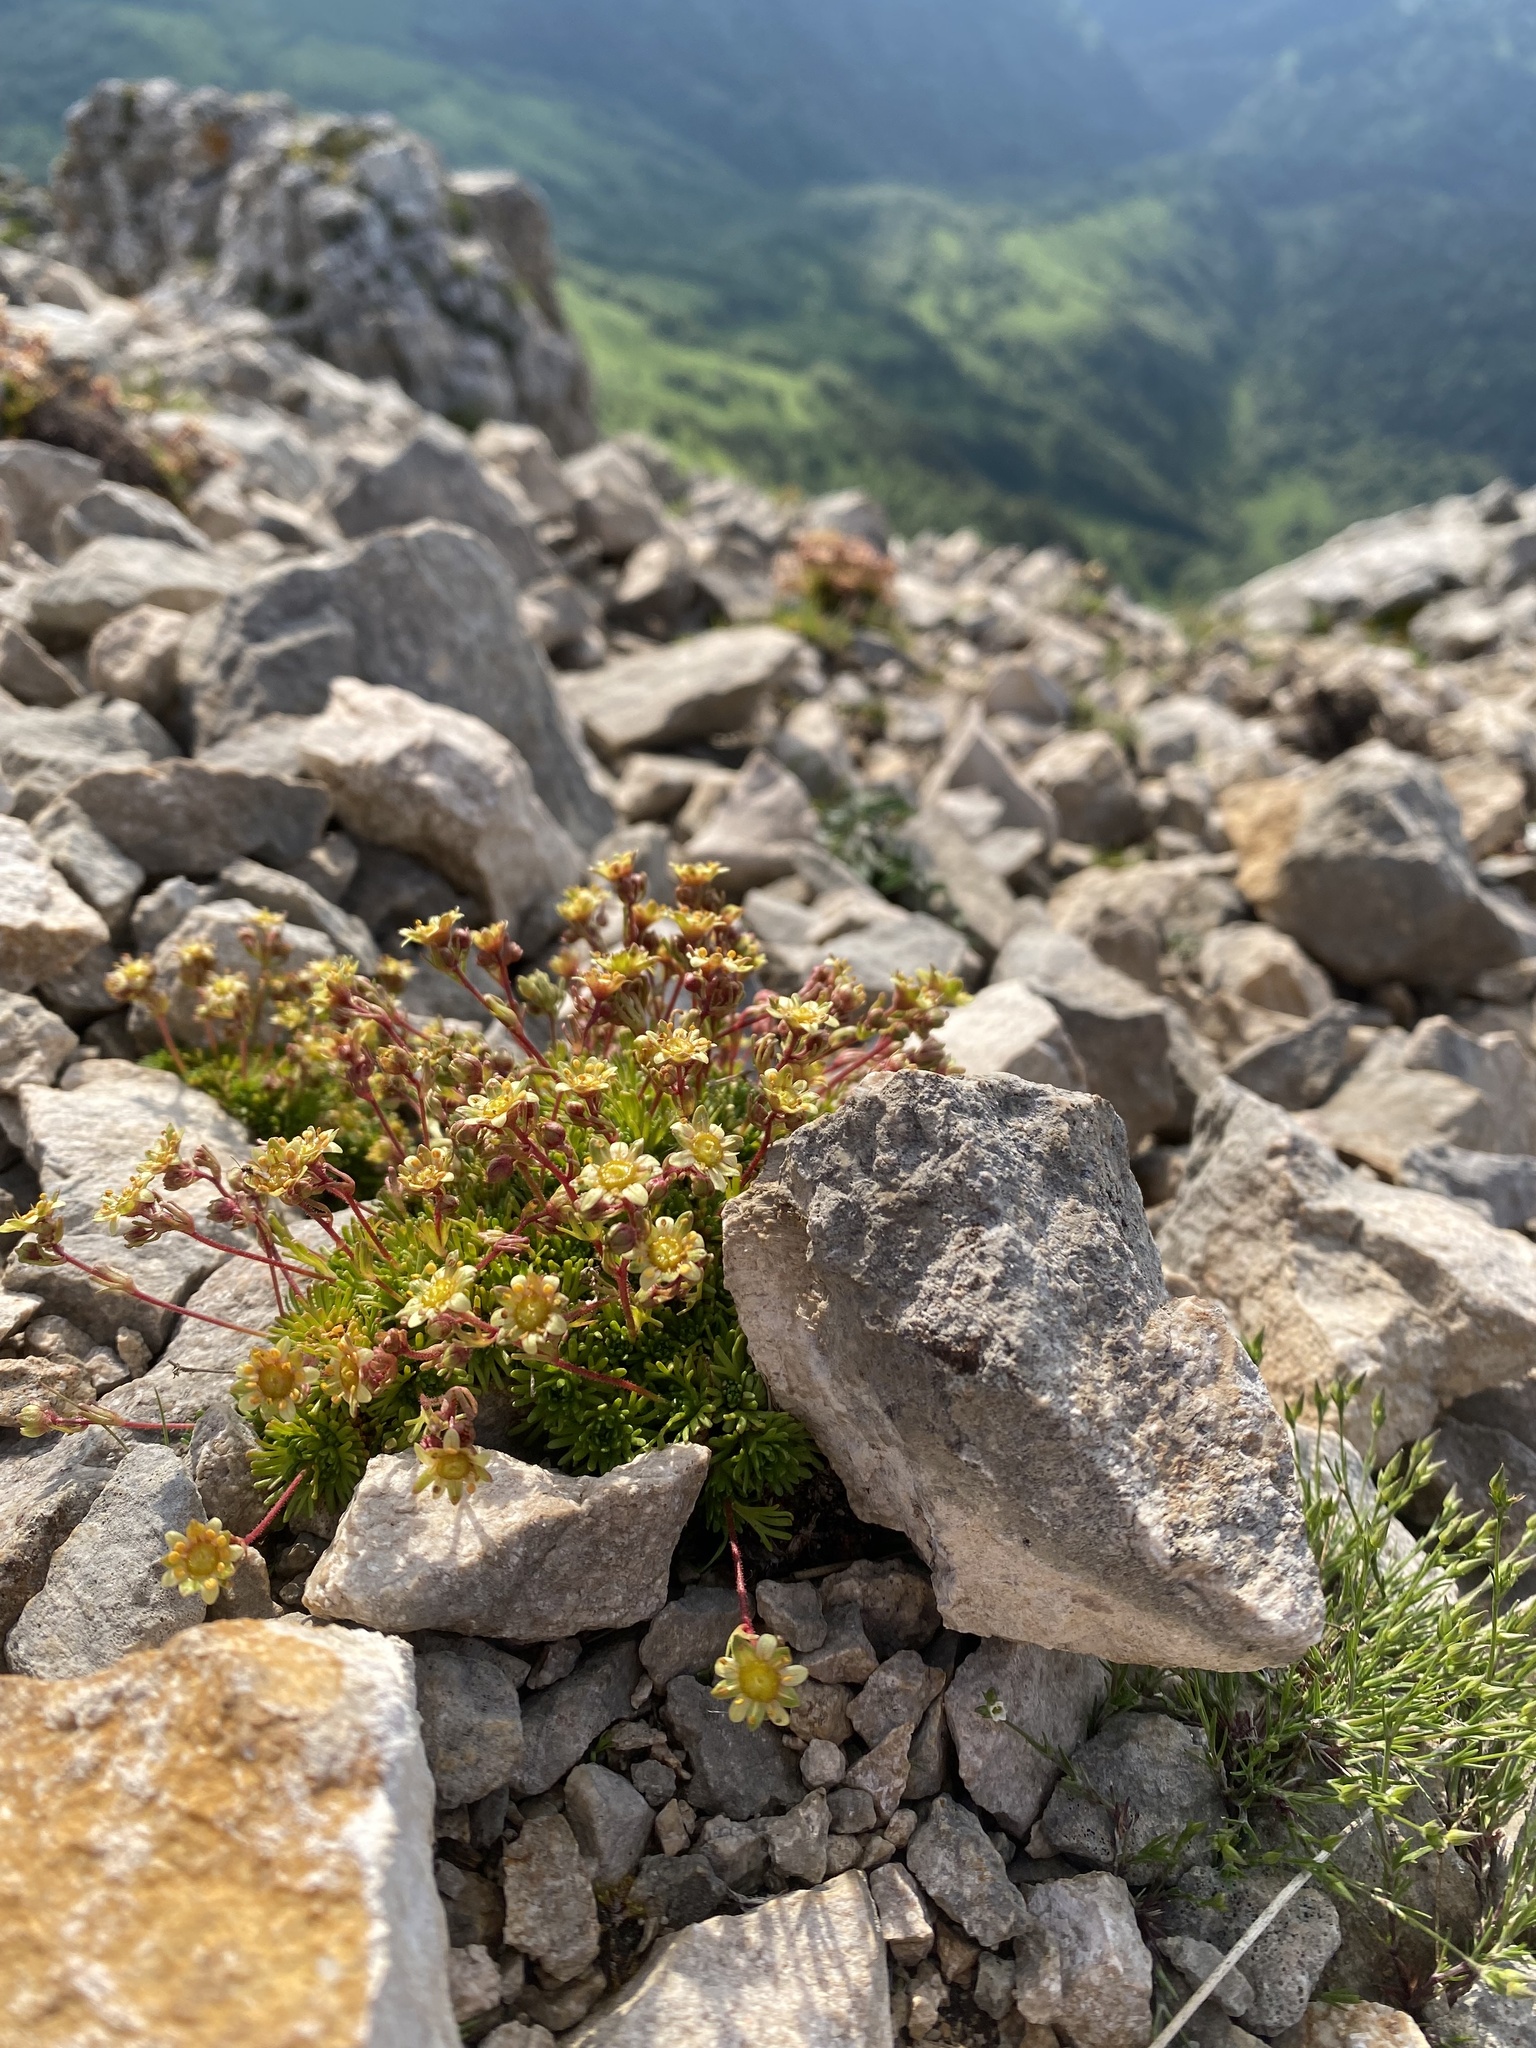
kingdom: Plantae
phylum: Tracheophyta
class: Magnoliopsida
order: Saxifragales
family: Saxifragaceae
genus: Saxifraga
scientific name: Saxifraga moschata
